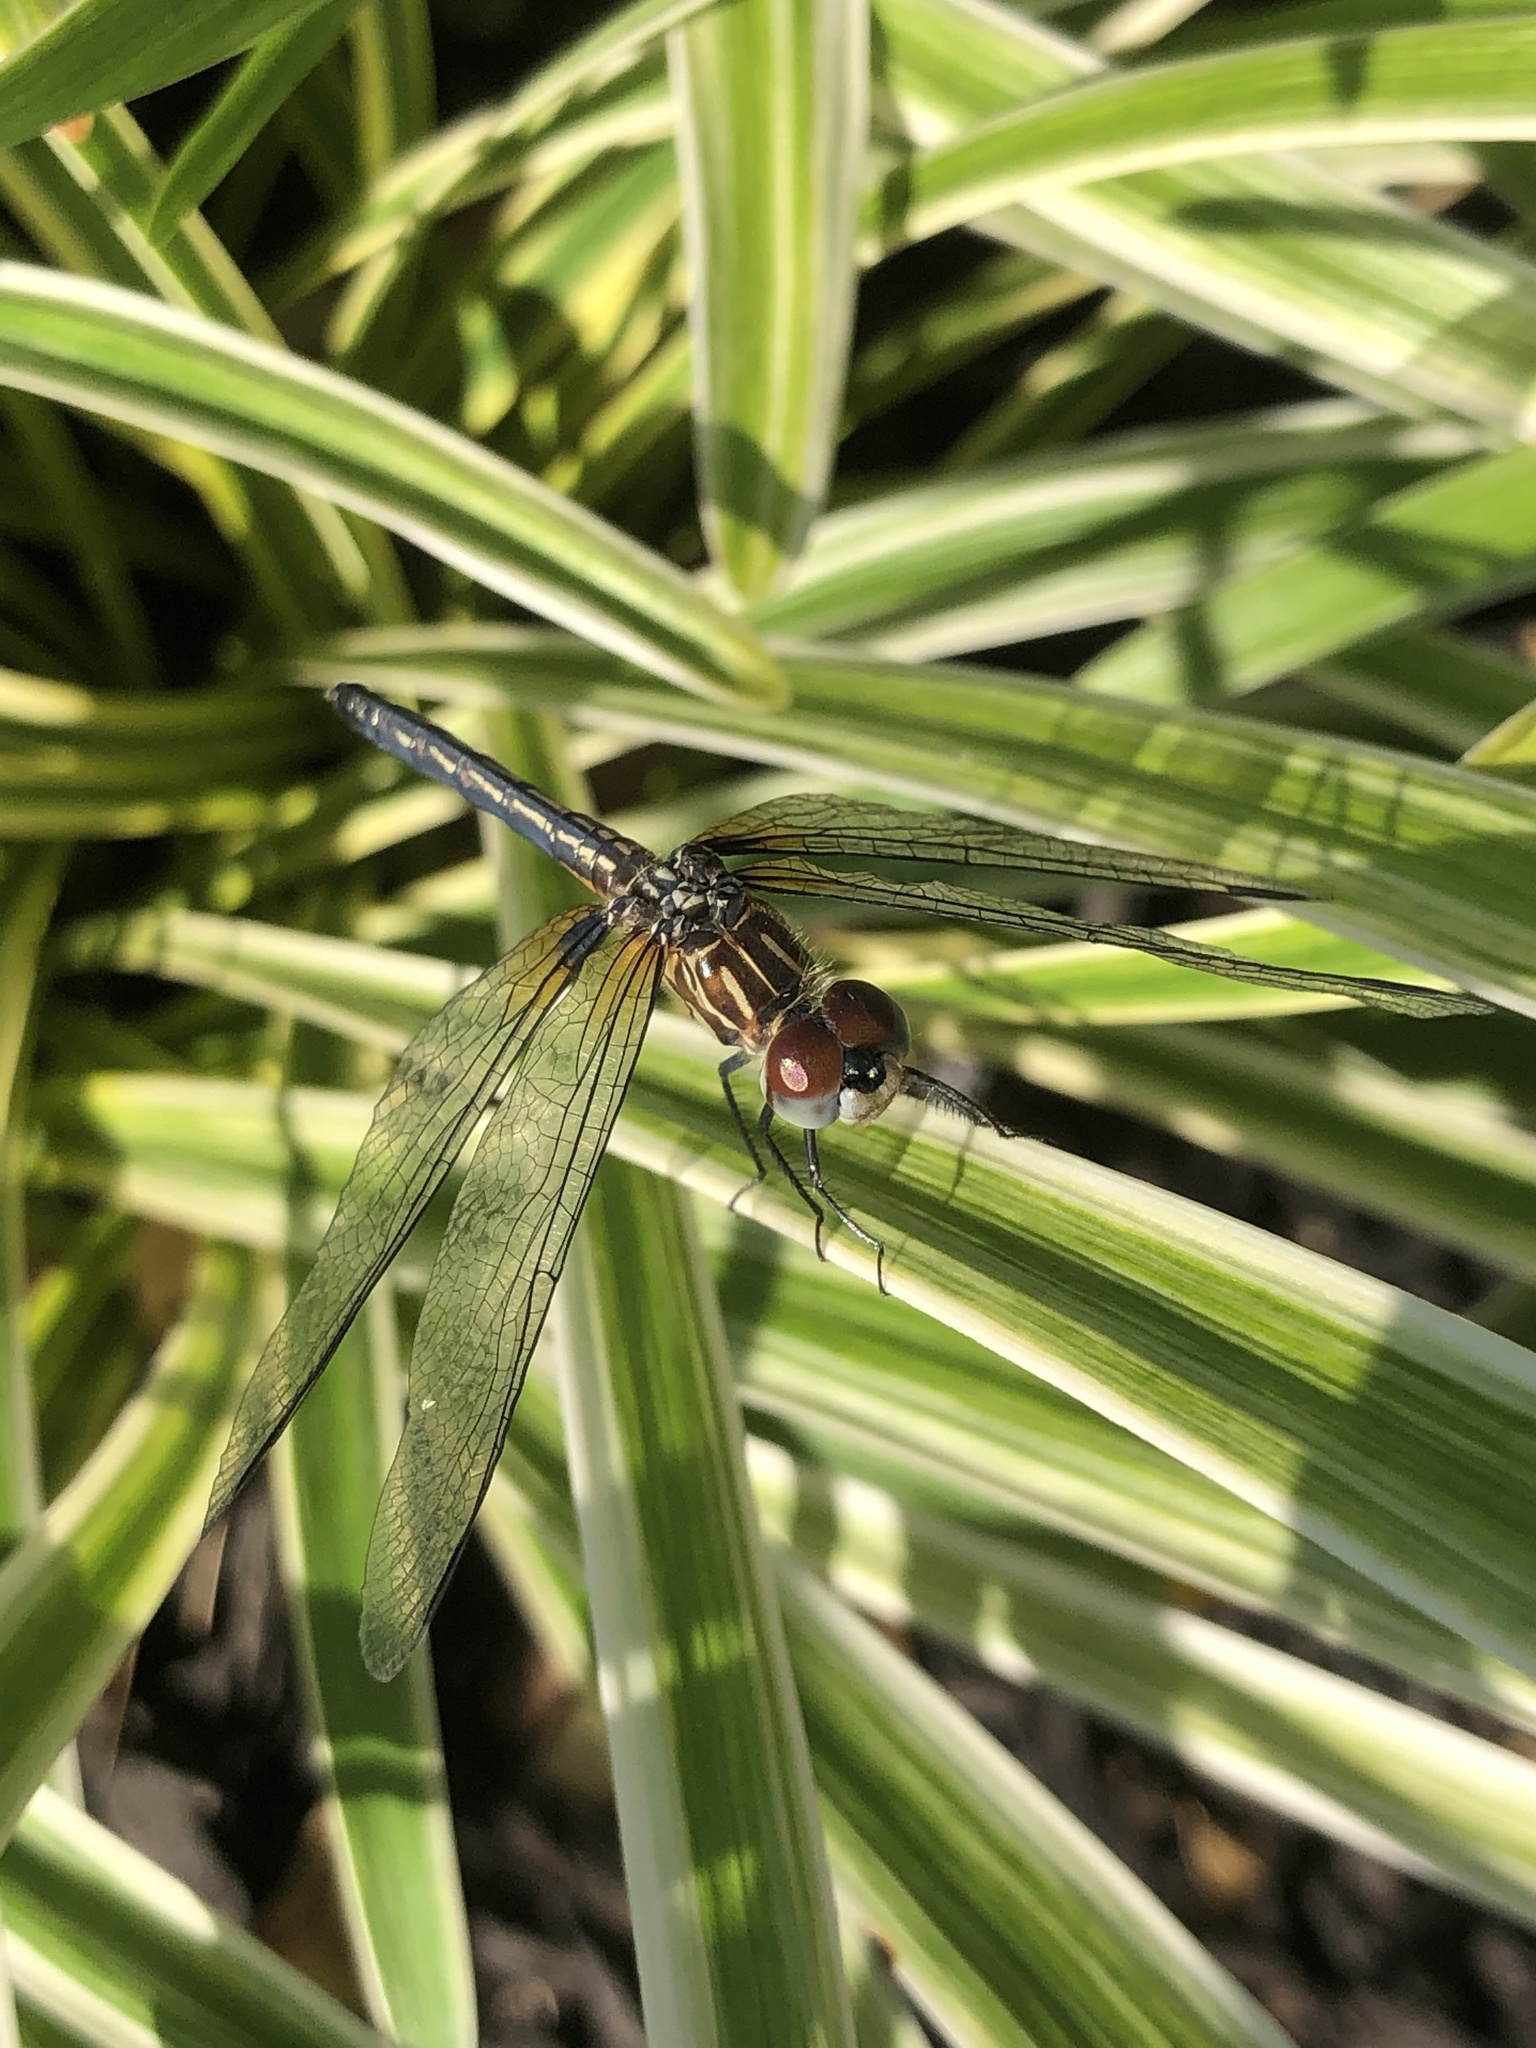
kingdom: Animalia
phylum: Arthropoda
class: Insecta
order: Odonata
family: Libellulidae
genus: Pachydiplax
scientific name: Pachydiplax longipennis
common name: Blue dasher
